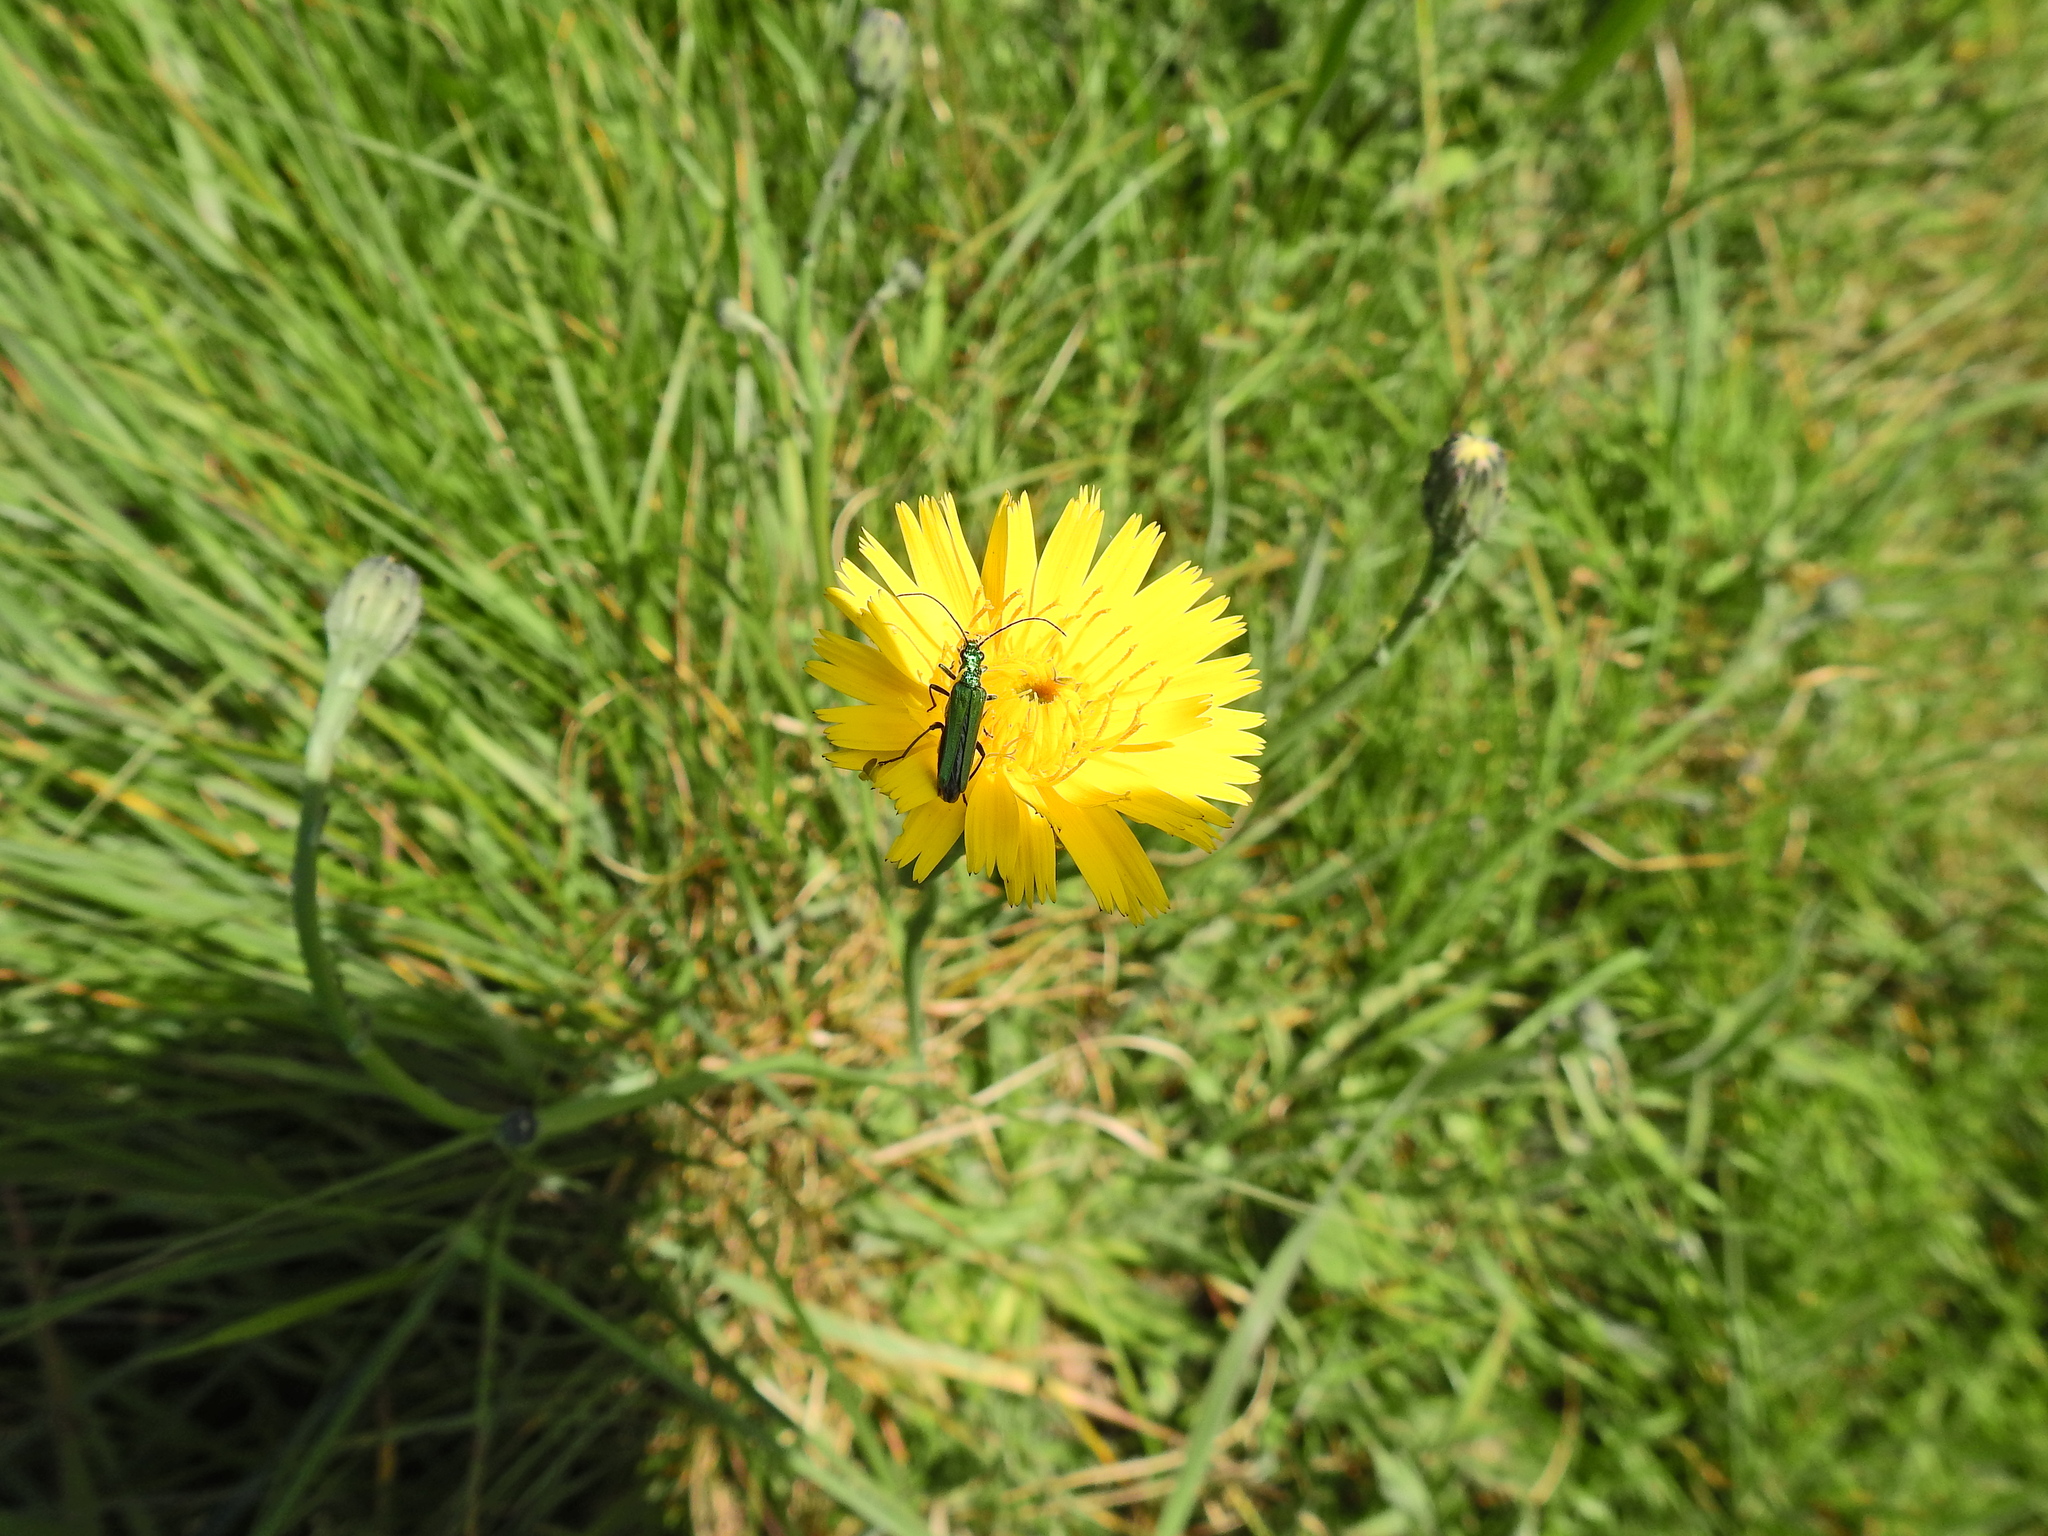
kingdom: Animalia
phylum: Arthropoda
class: Insecta
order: Coleoptera
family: Oedemeridae
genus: Oedemera
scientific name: Oedemera nobilis
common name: Swollen-thighed beetle
